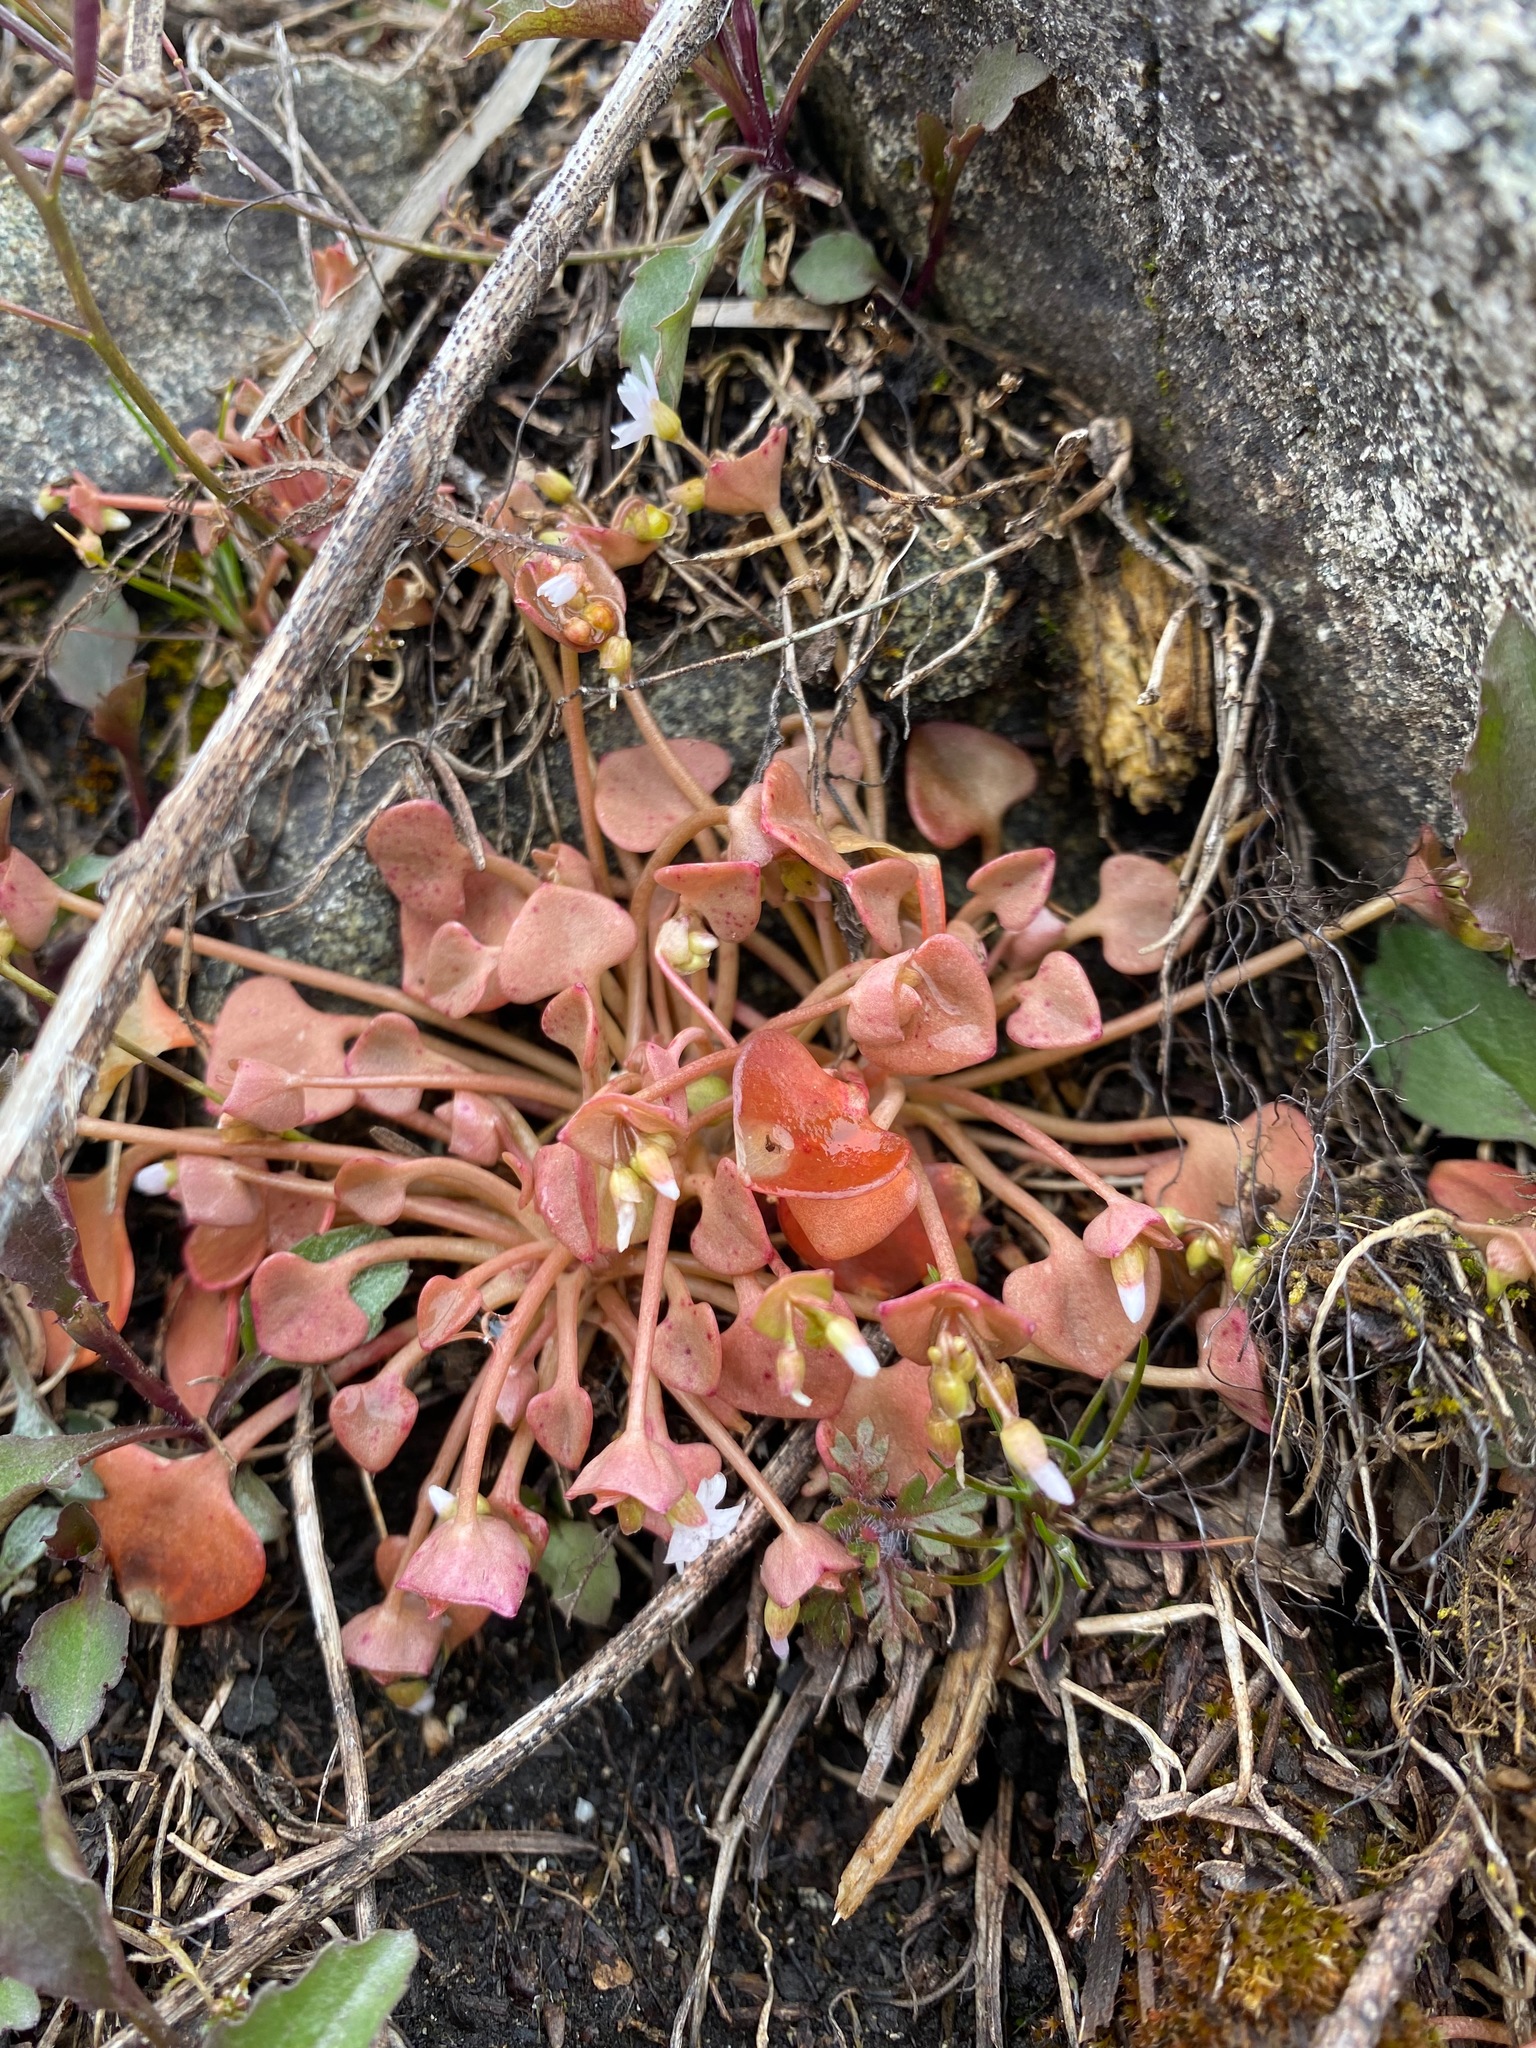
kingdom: Plantae
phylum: Tracheophyta
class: Magnoliopsida
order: Caryophyllales
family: Montiaceae
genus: Claytonia
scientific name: Claytonia rubra
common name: Erubescent miner's-lettuce
